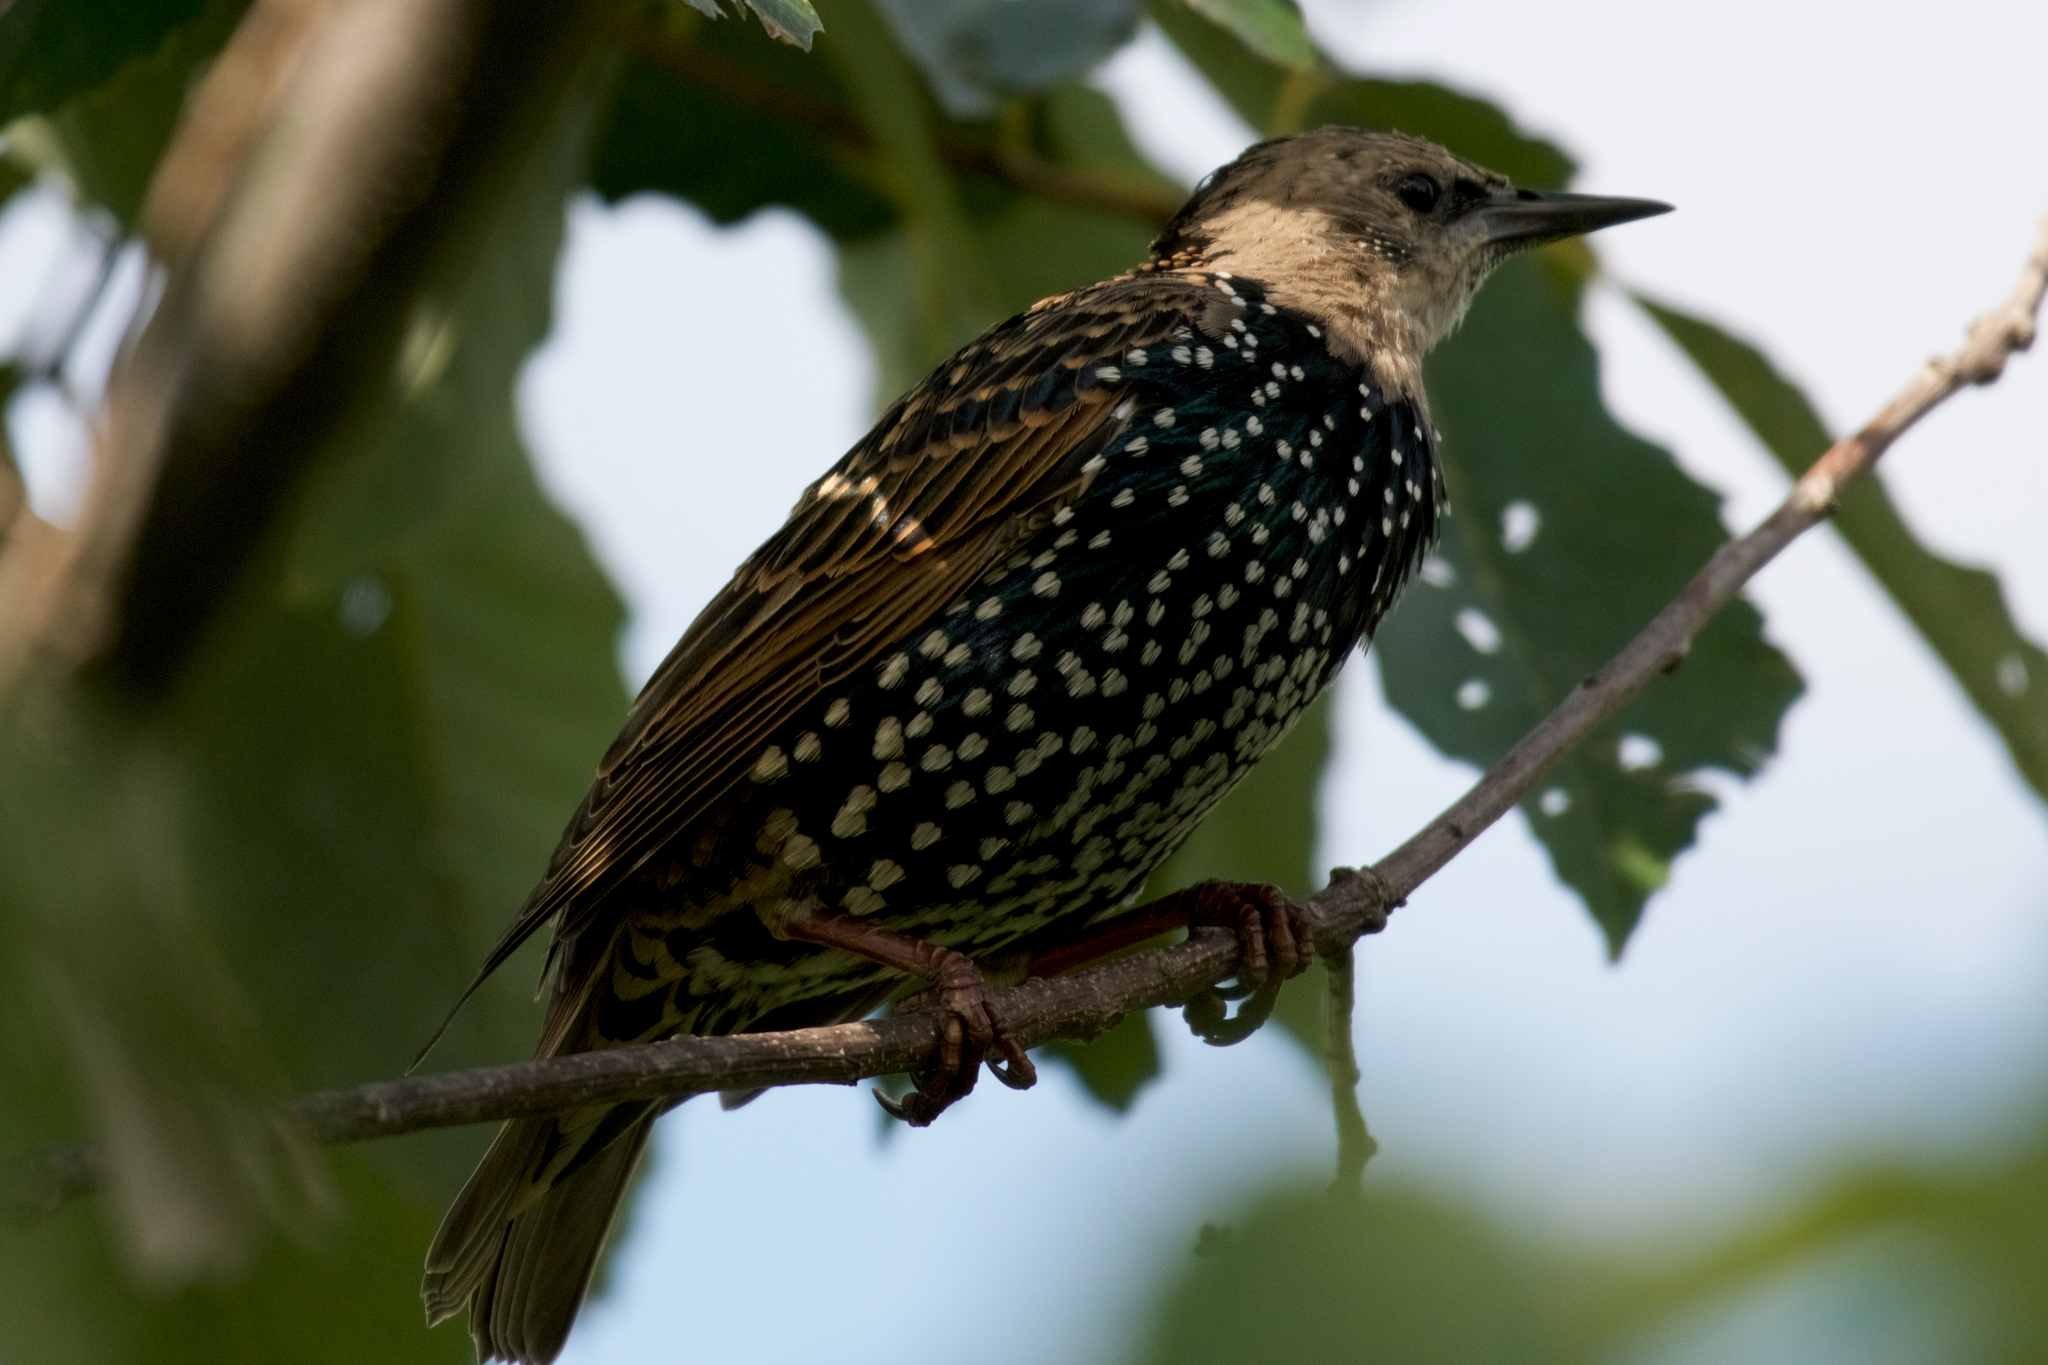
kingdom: Animalia
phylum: Chordata
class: Aves
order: Passeriformes
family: Sturnidae
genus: Sturnus
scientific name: Sturnus vulgaris
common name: Common starling
